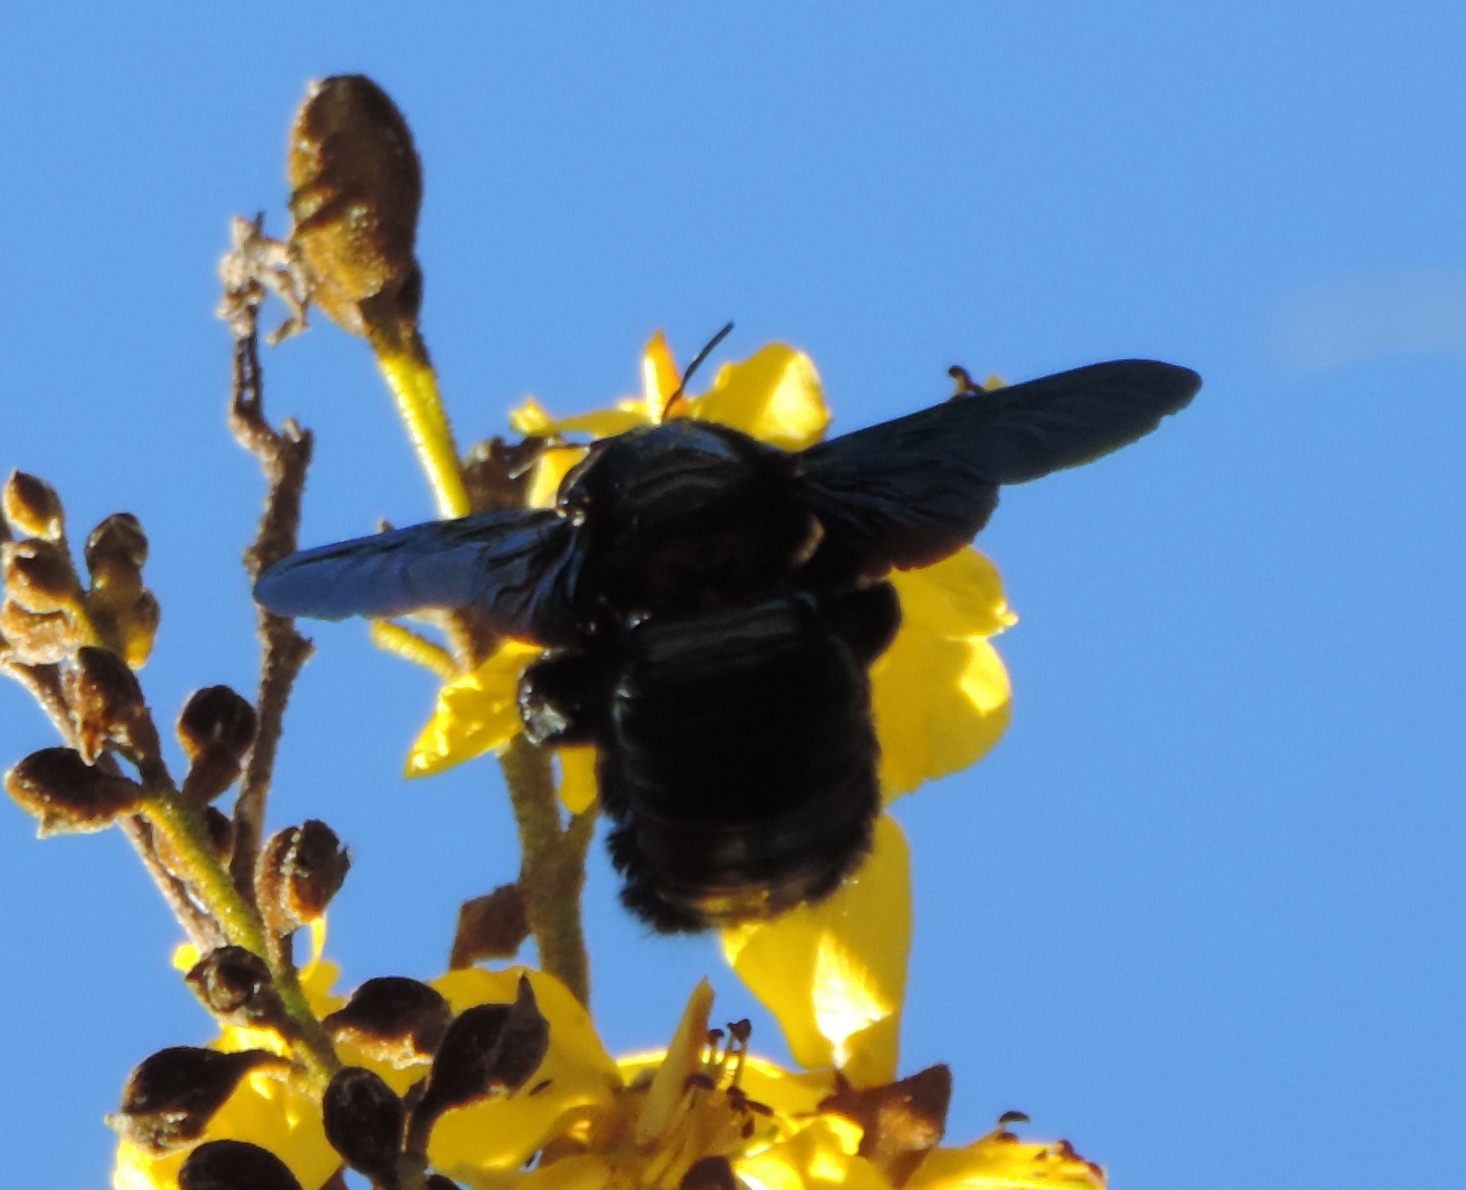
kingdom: Animalia
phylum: Arthropoda
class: Insecta
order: Hymenoptera
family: Apidae
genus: Xylocopa
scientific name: Xylocopa fimbriata
